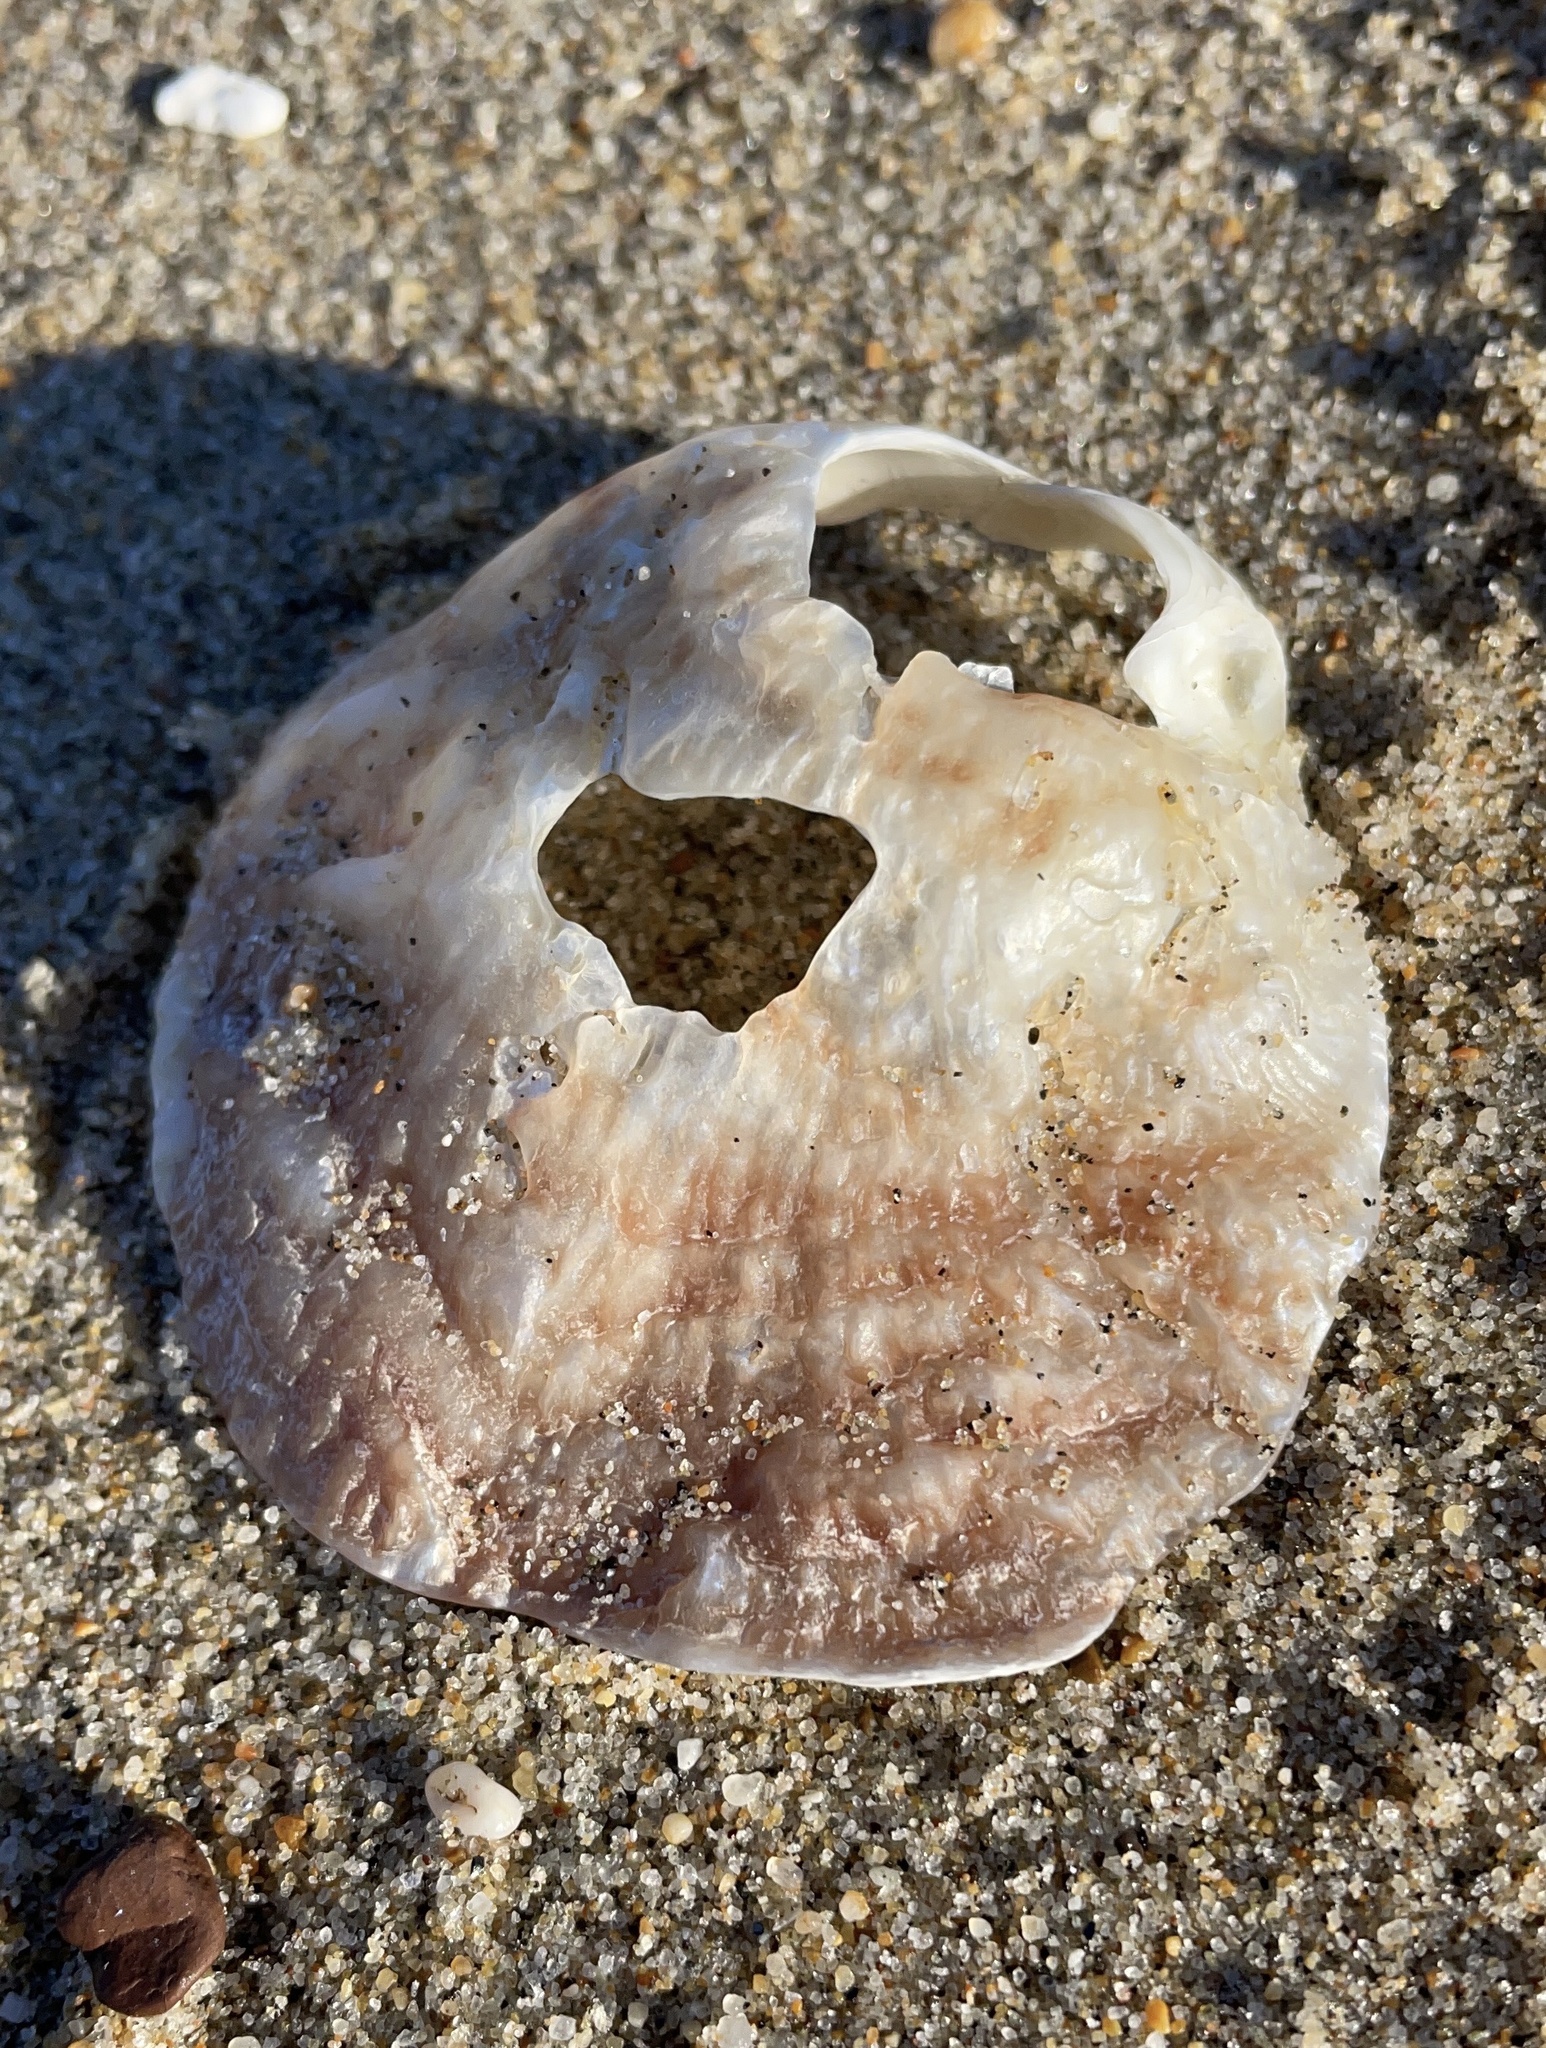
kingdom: Animalia
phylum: Mollusca
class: Bivalvia
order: Pectinida
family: Anomiidae
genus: Pododesmus
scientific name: Pododesmus macrochisma
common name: Alaska jingle
